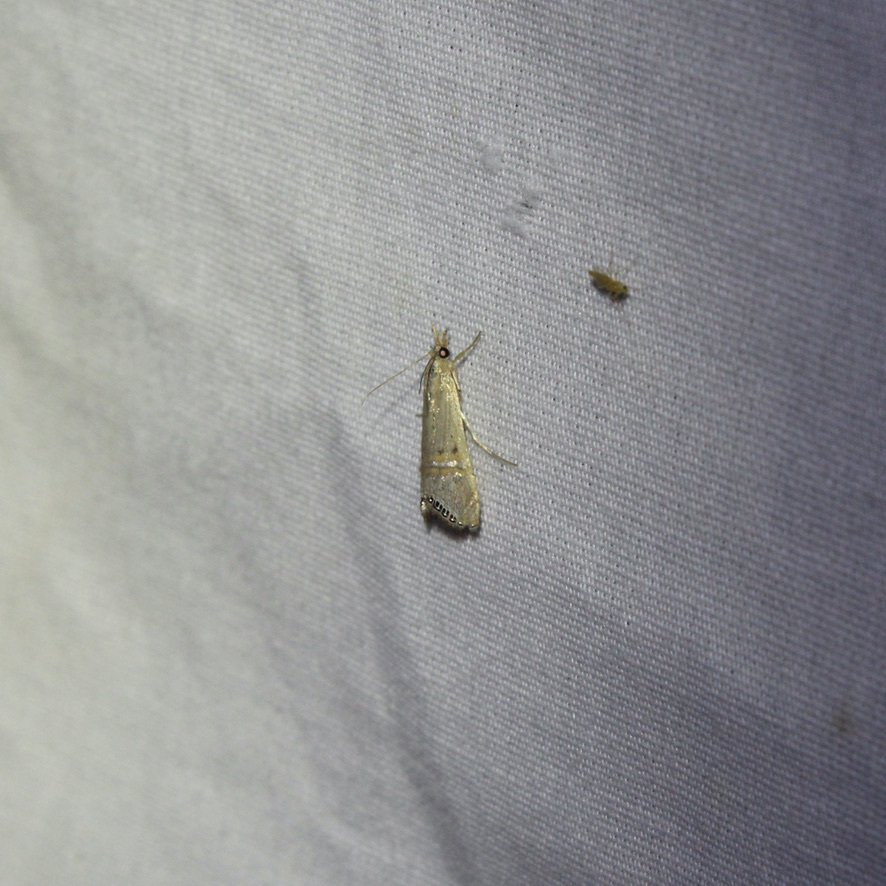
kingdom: Animalia
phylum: Arthropoda
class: Insecta
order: Lepidoptera
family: Crambidae
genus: Euchromius
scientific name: Euchromius ocellea
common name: Necklace veneer moth
